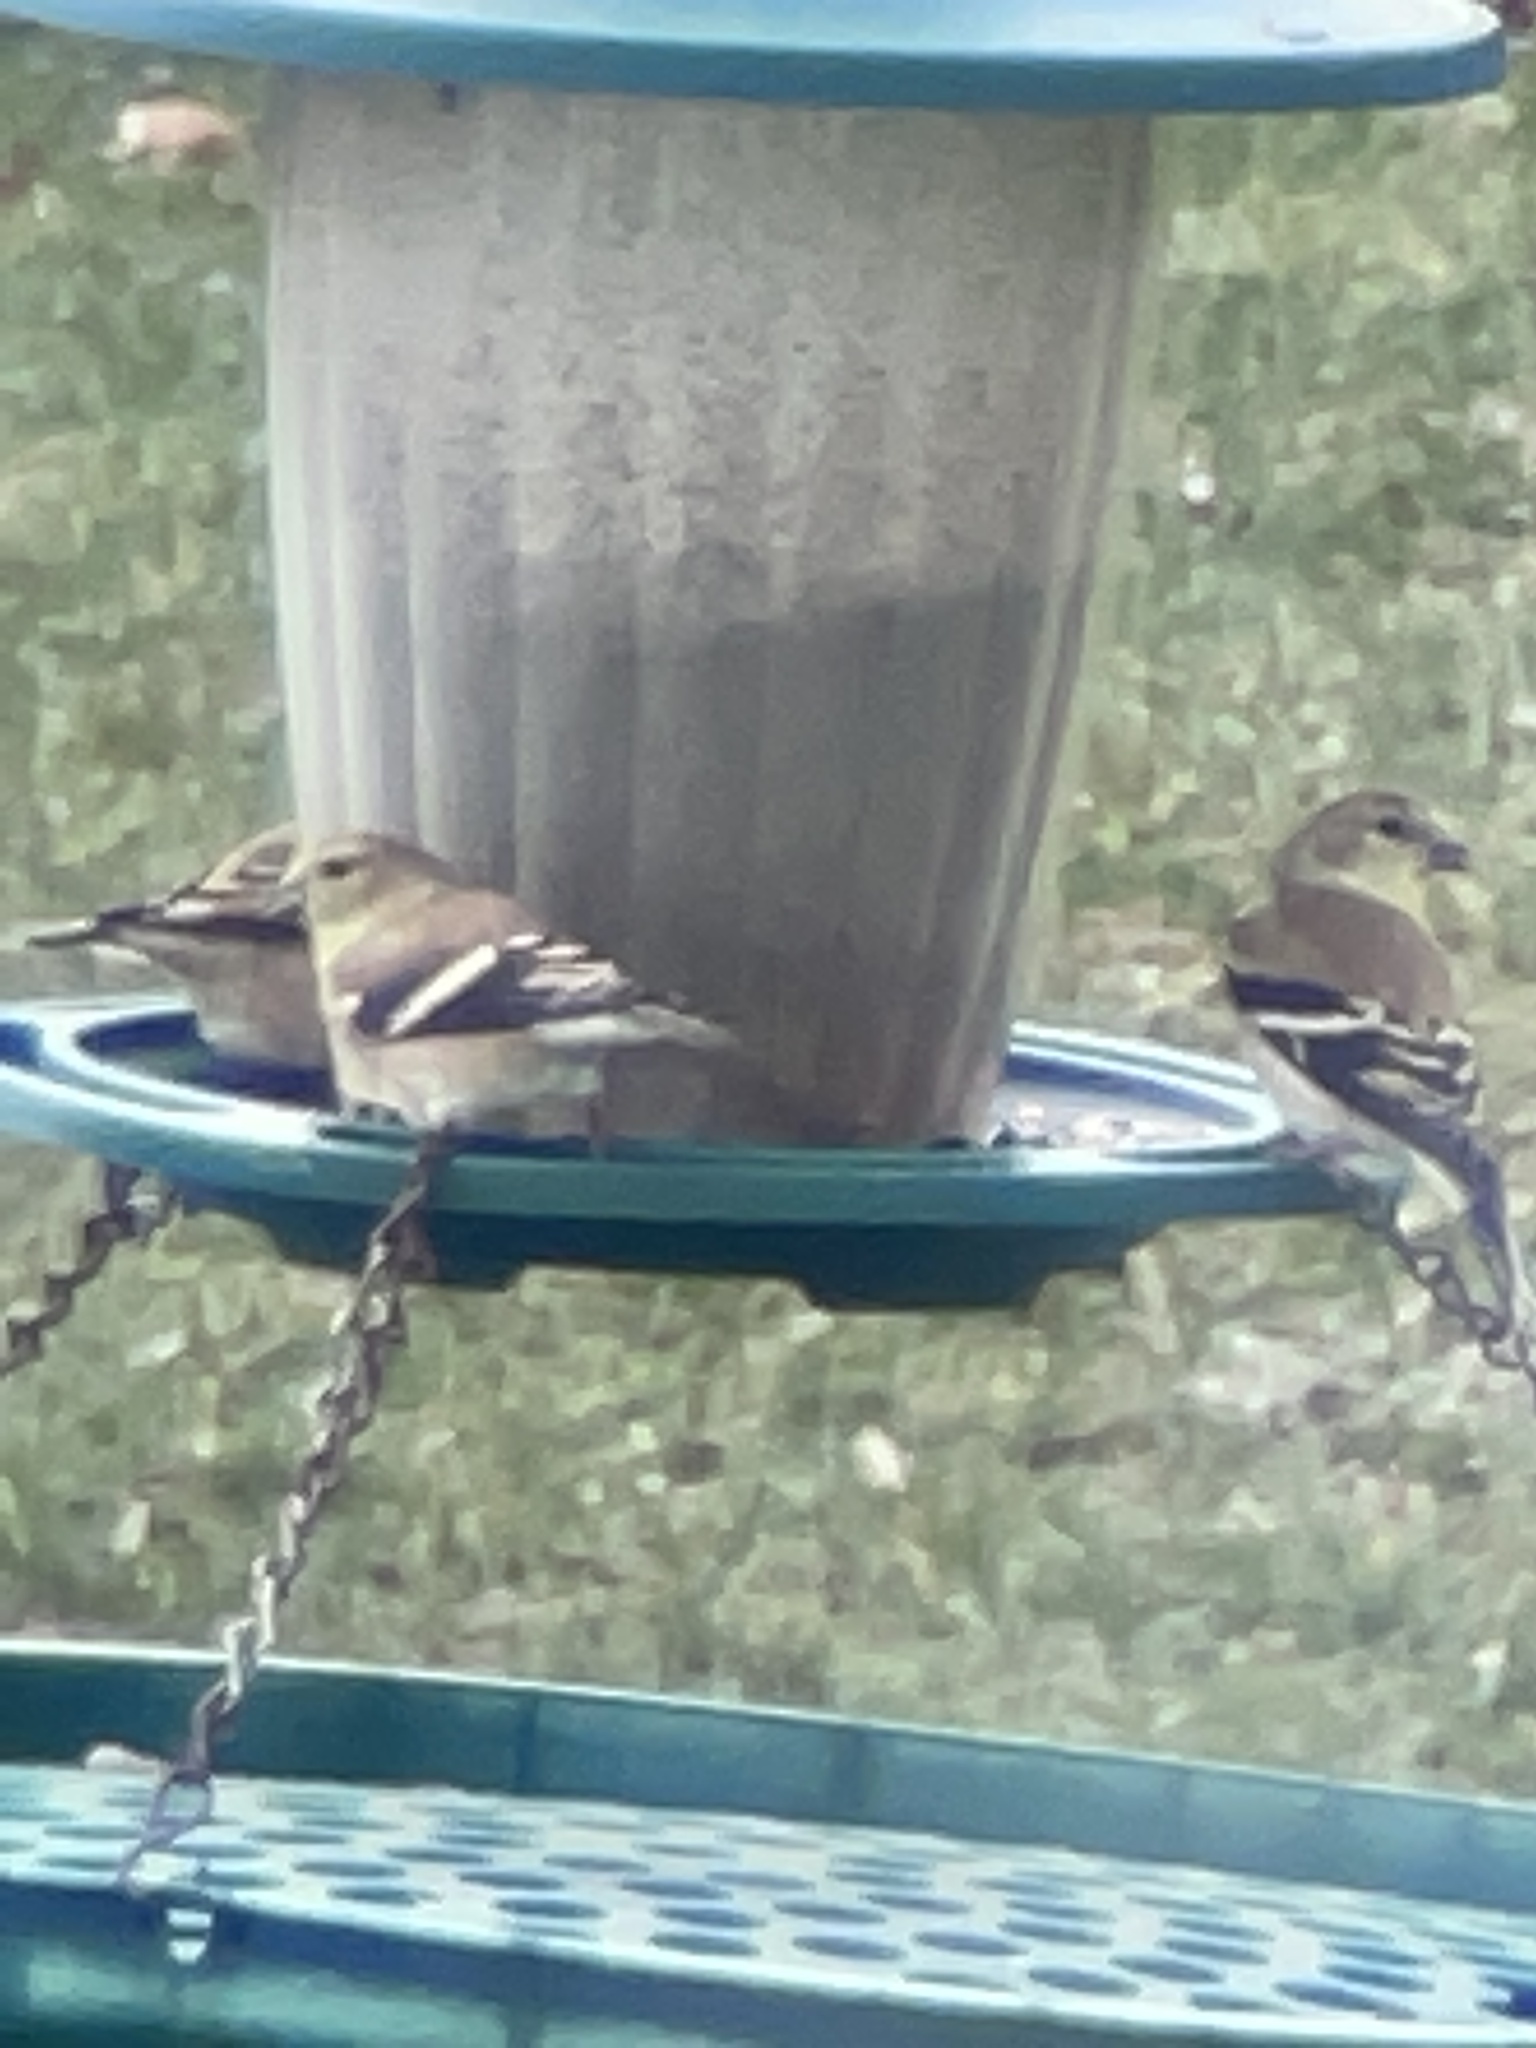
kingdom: Animalia
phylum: Chordata
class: Aves
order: Passeriformes
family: Fringillidae
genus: Spinus
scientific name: Spinus tristis
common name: American goldfinch
